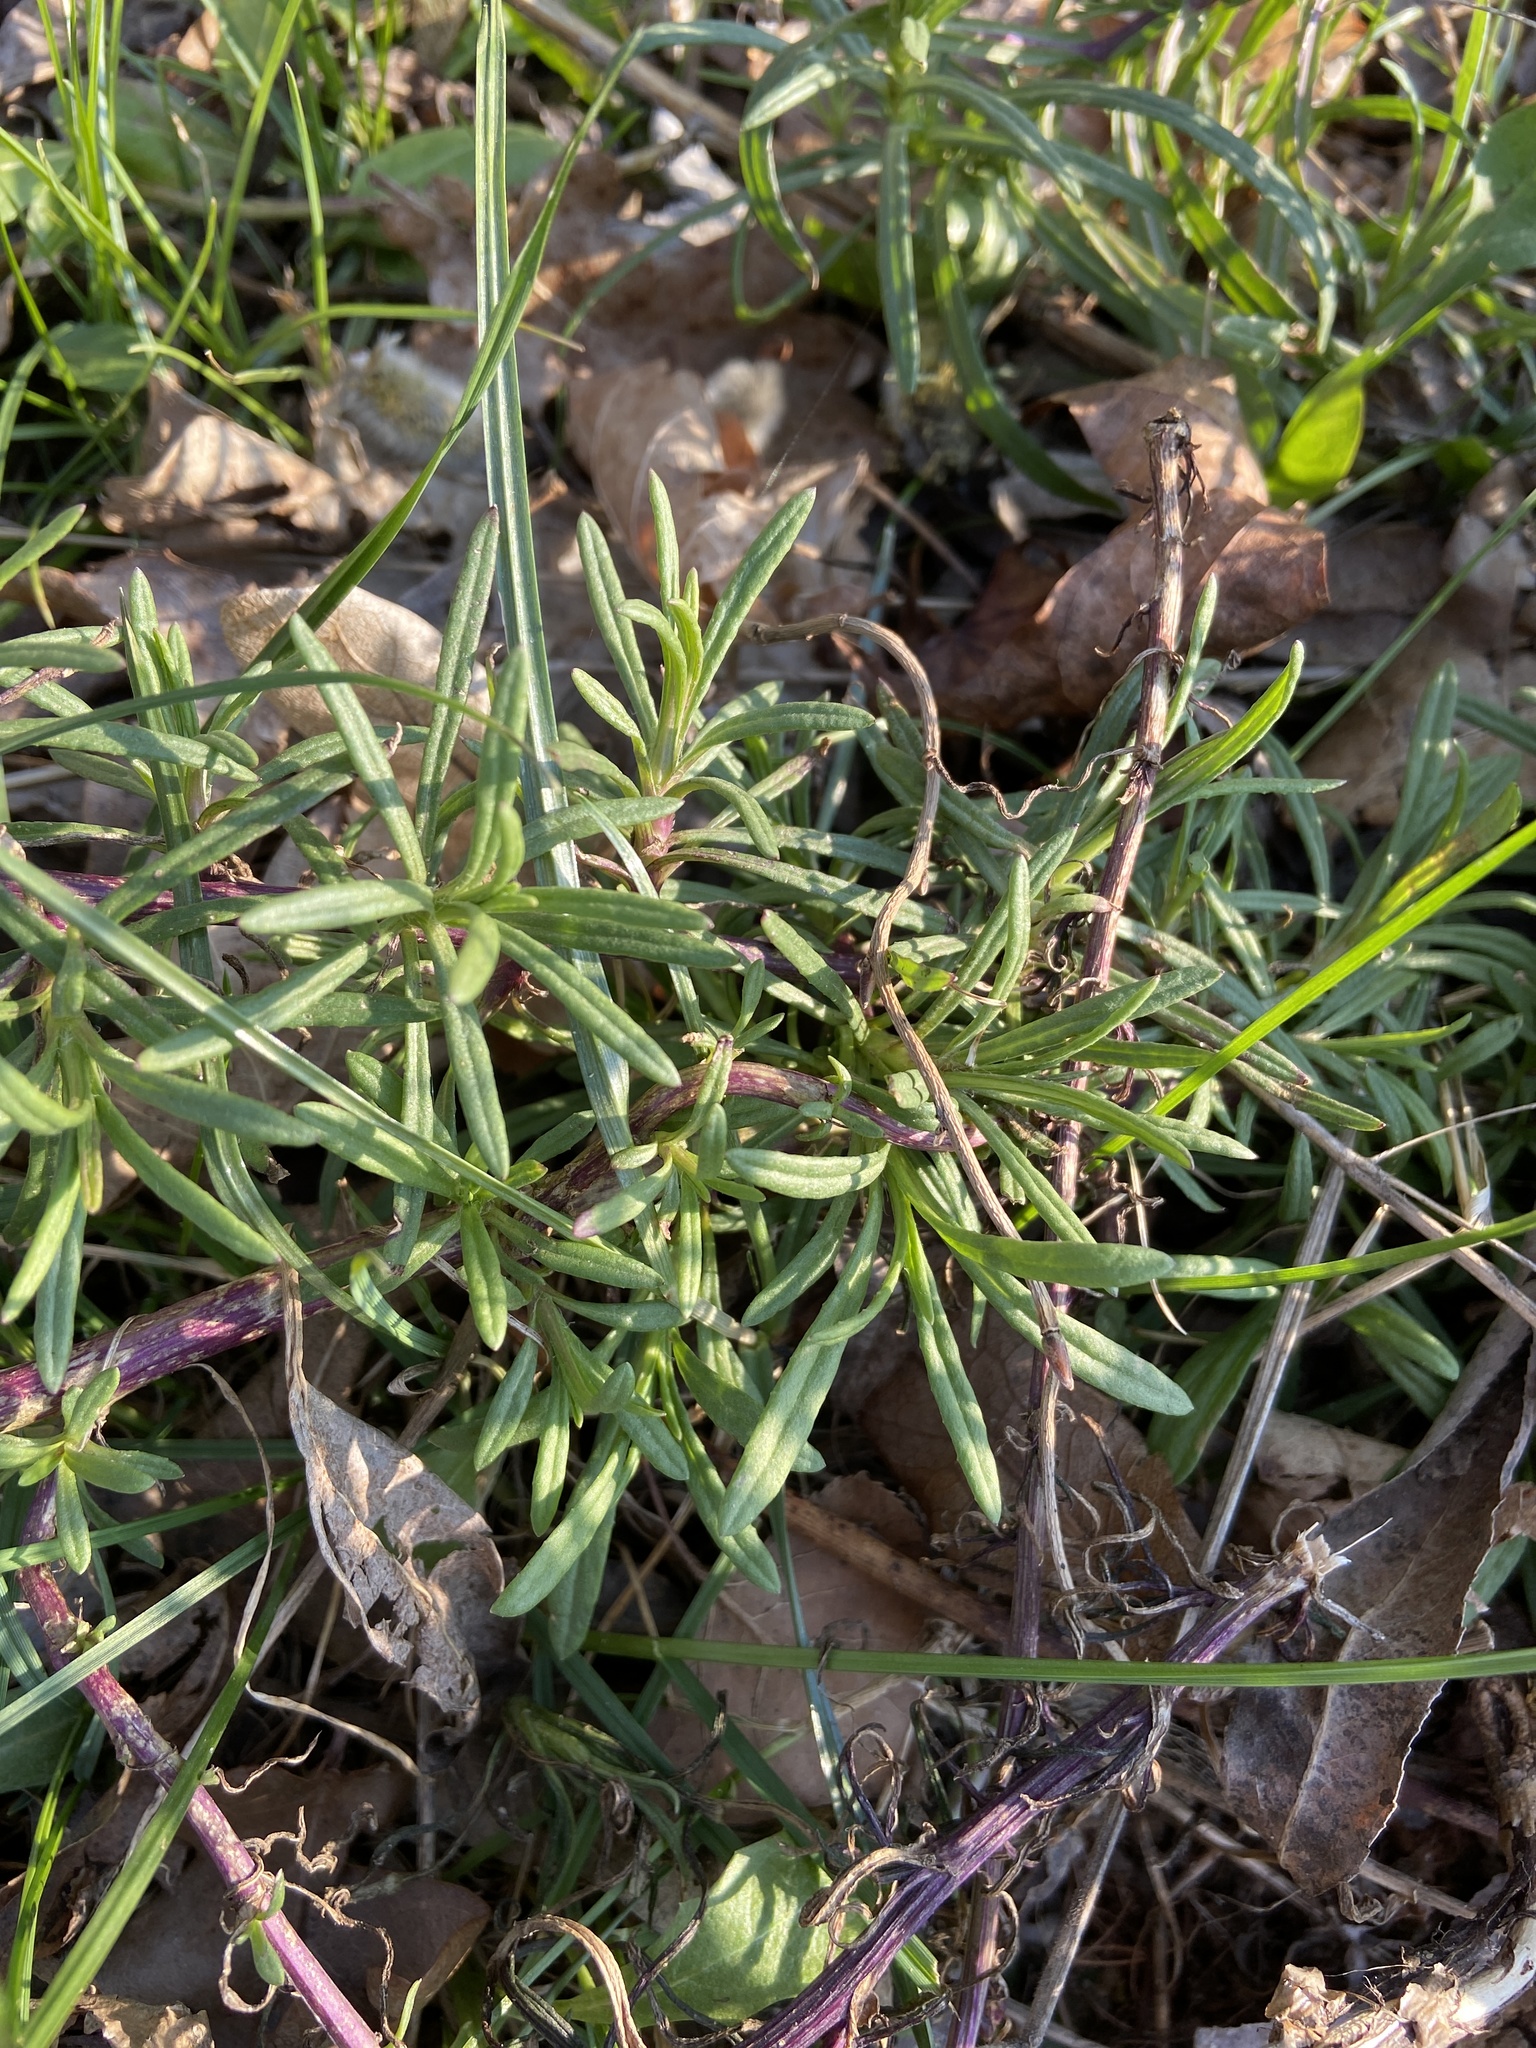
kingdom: Plantae
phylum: Tracheophyta
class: Magnoliopsida
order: Asterales
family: Asteraceae
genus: Senecio
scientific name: Senecio inaequidens
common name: Narrow-leaved ragwort
